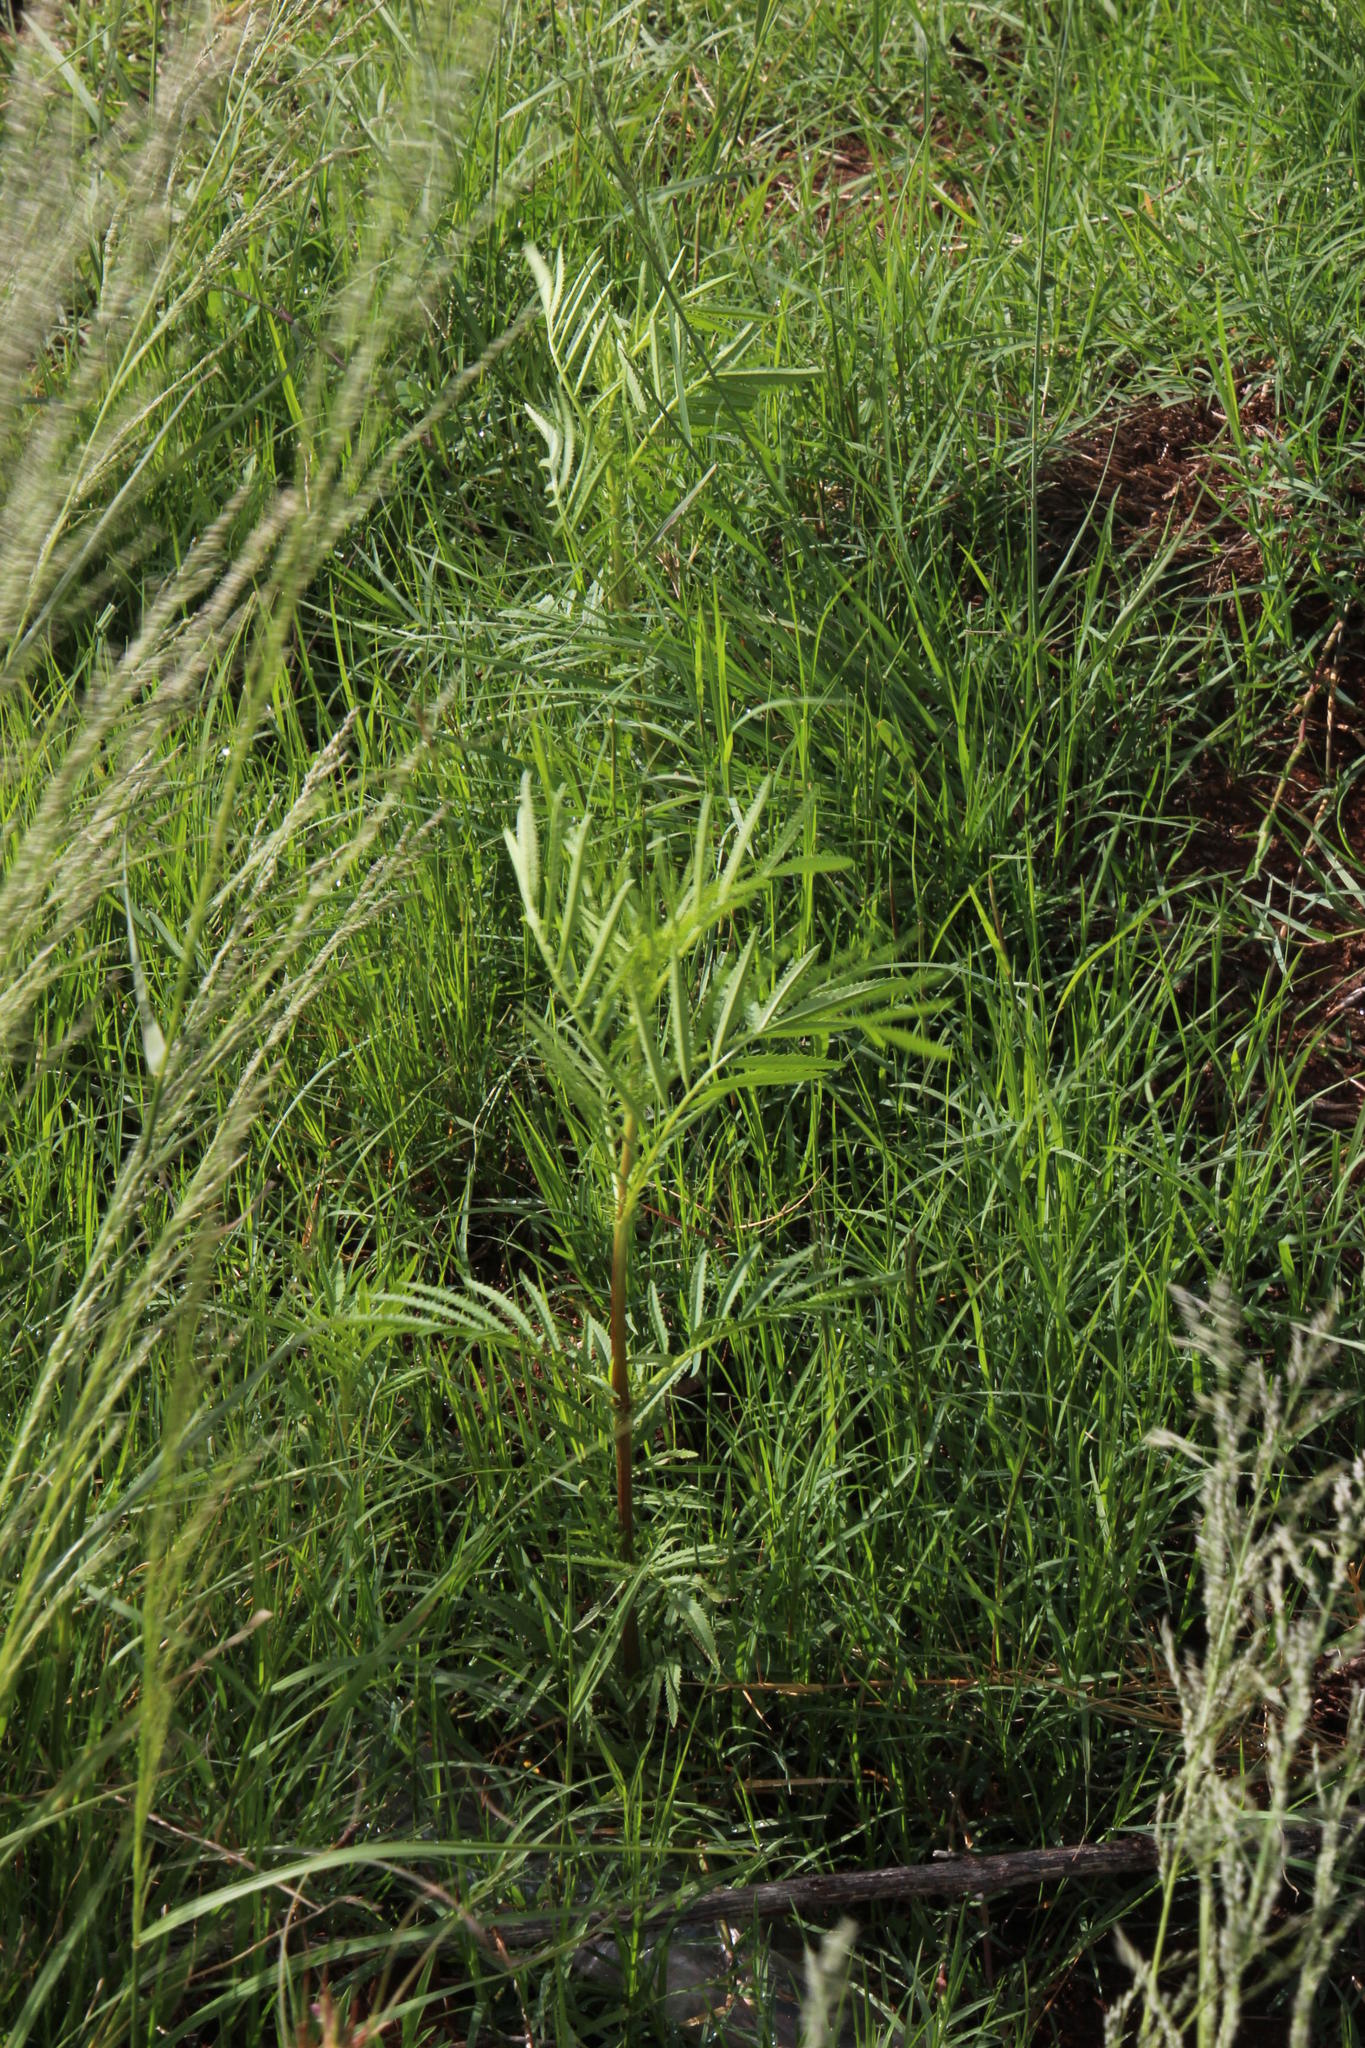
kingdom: Plantae
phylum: Tracheophyta
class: Magnoliopsida
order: Asterales
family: Asteraceae
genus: Tagetes
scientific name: Tagetes minuta
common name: Muster john henry
